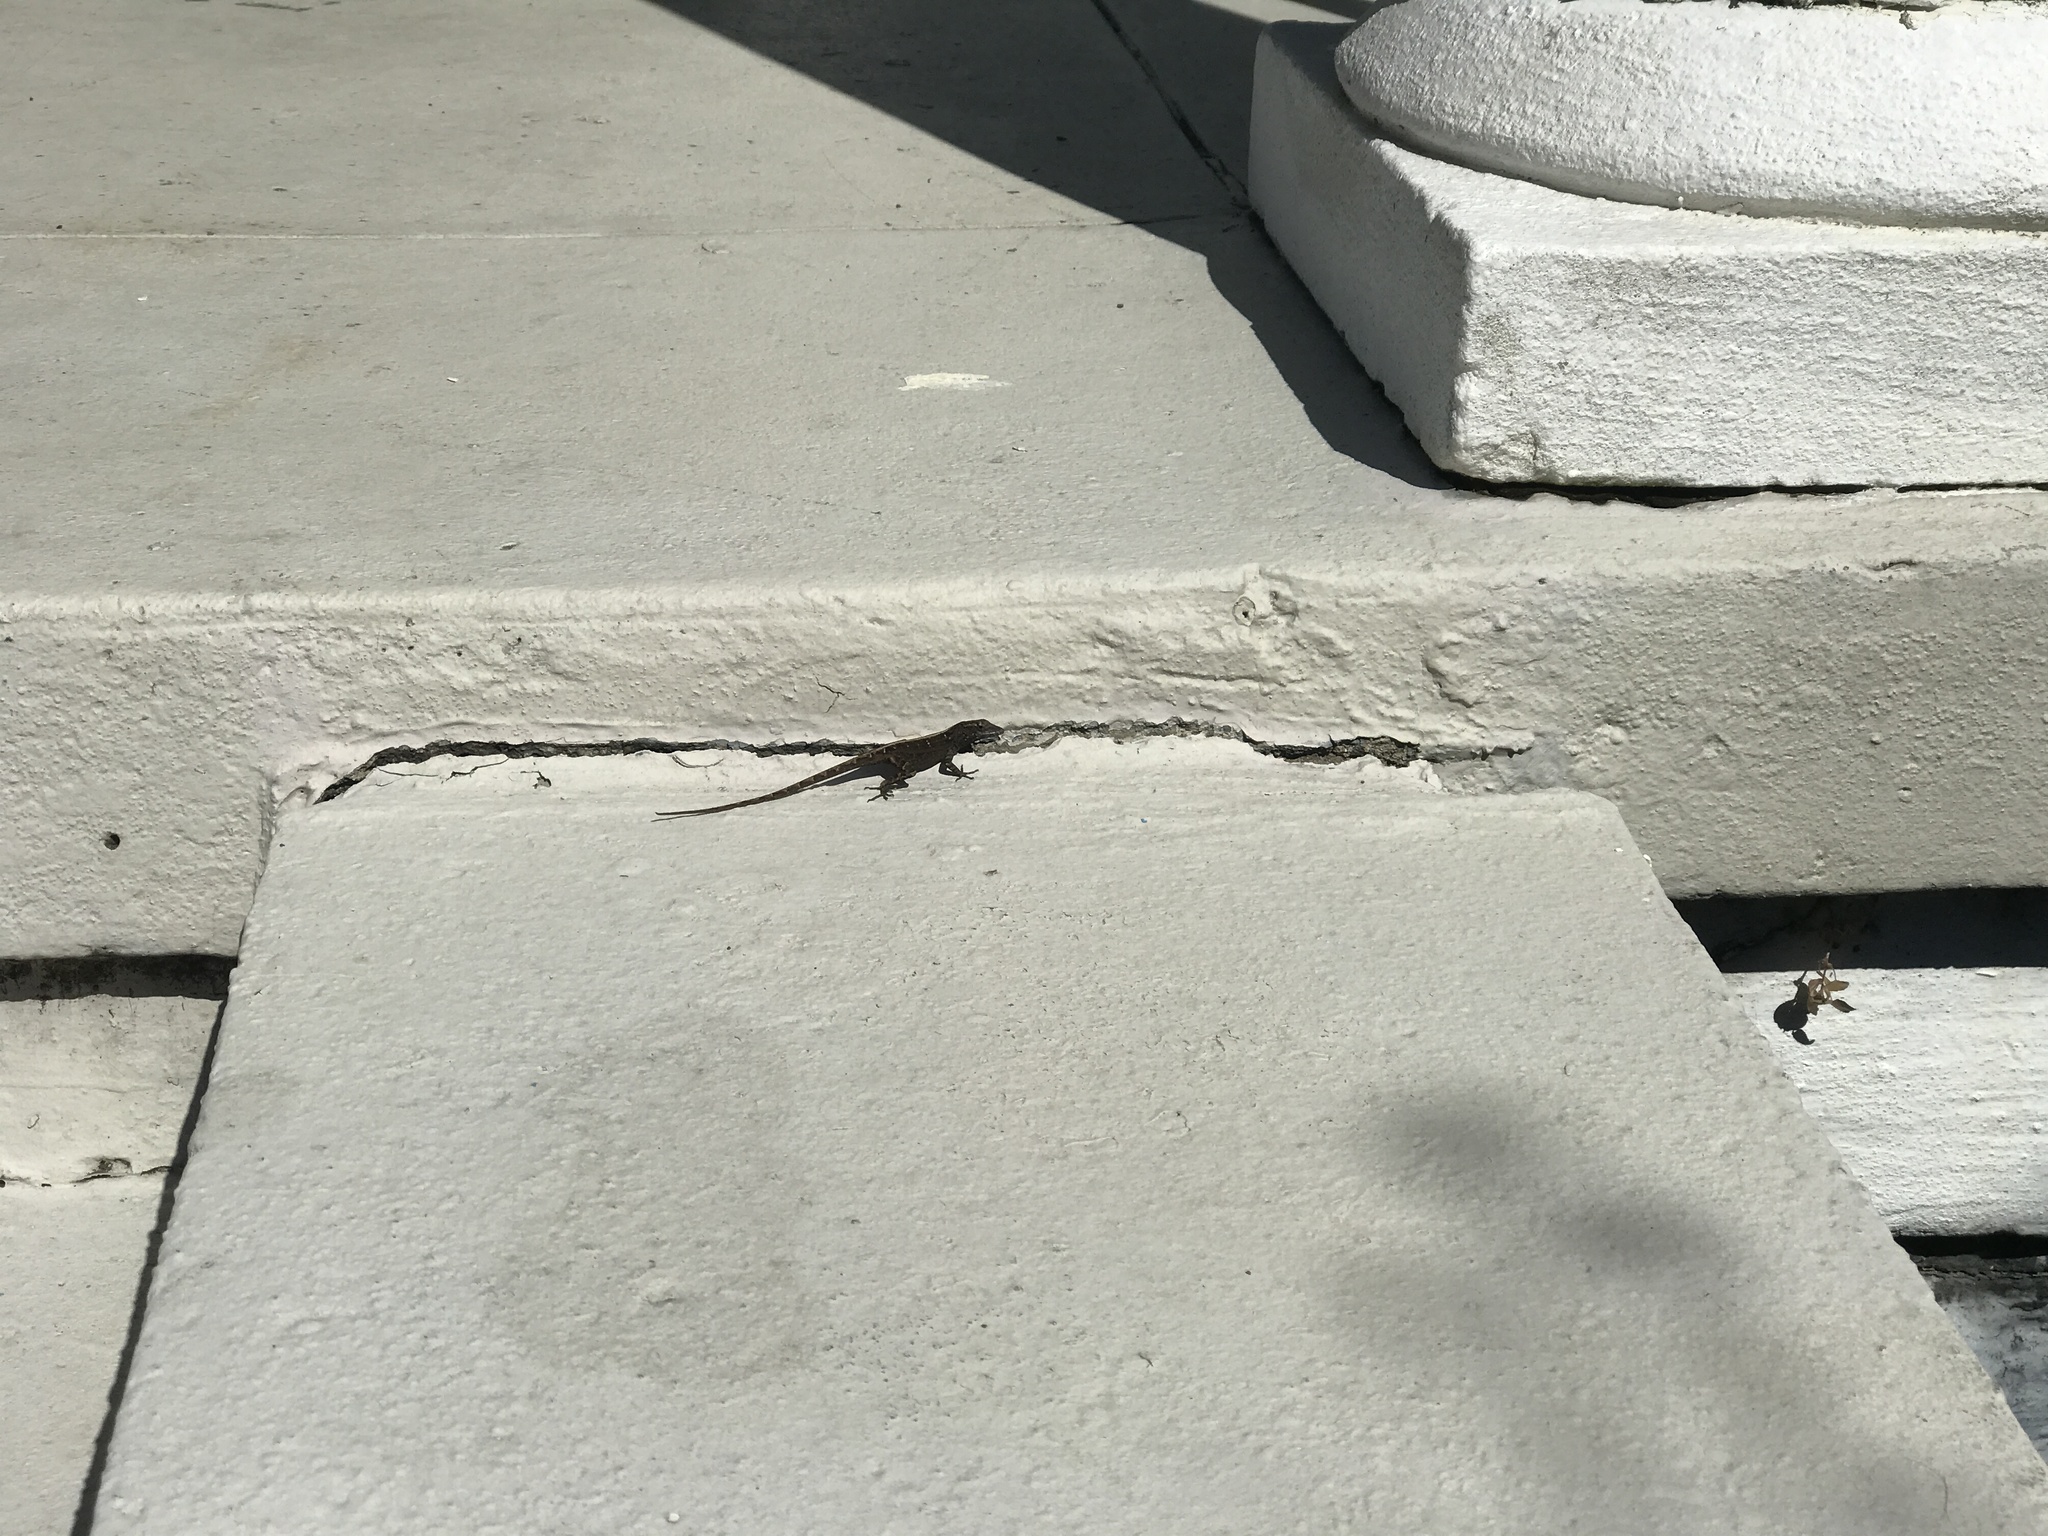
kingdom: Animalia
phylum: Chordata
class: Squamata
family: Dactyloidae
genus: Anolis
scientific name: Anolis sagrei
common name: Brown anole
